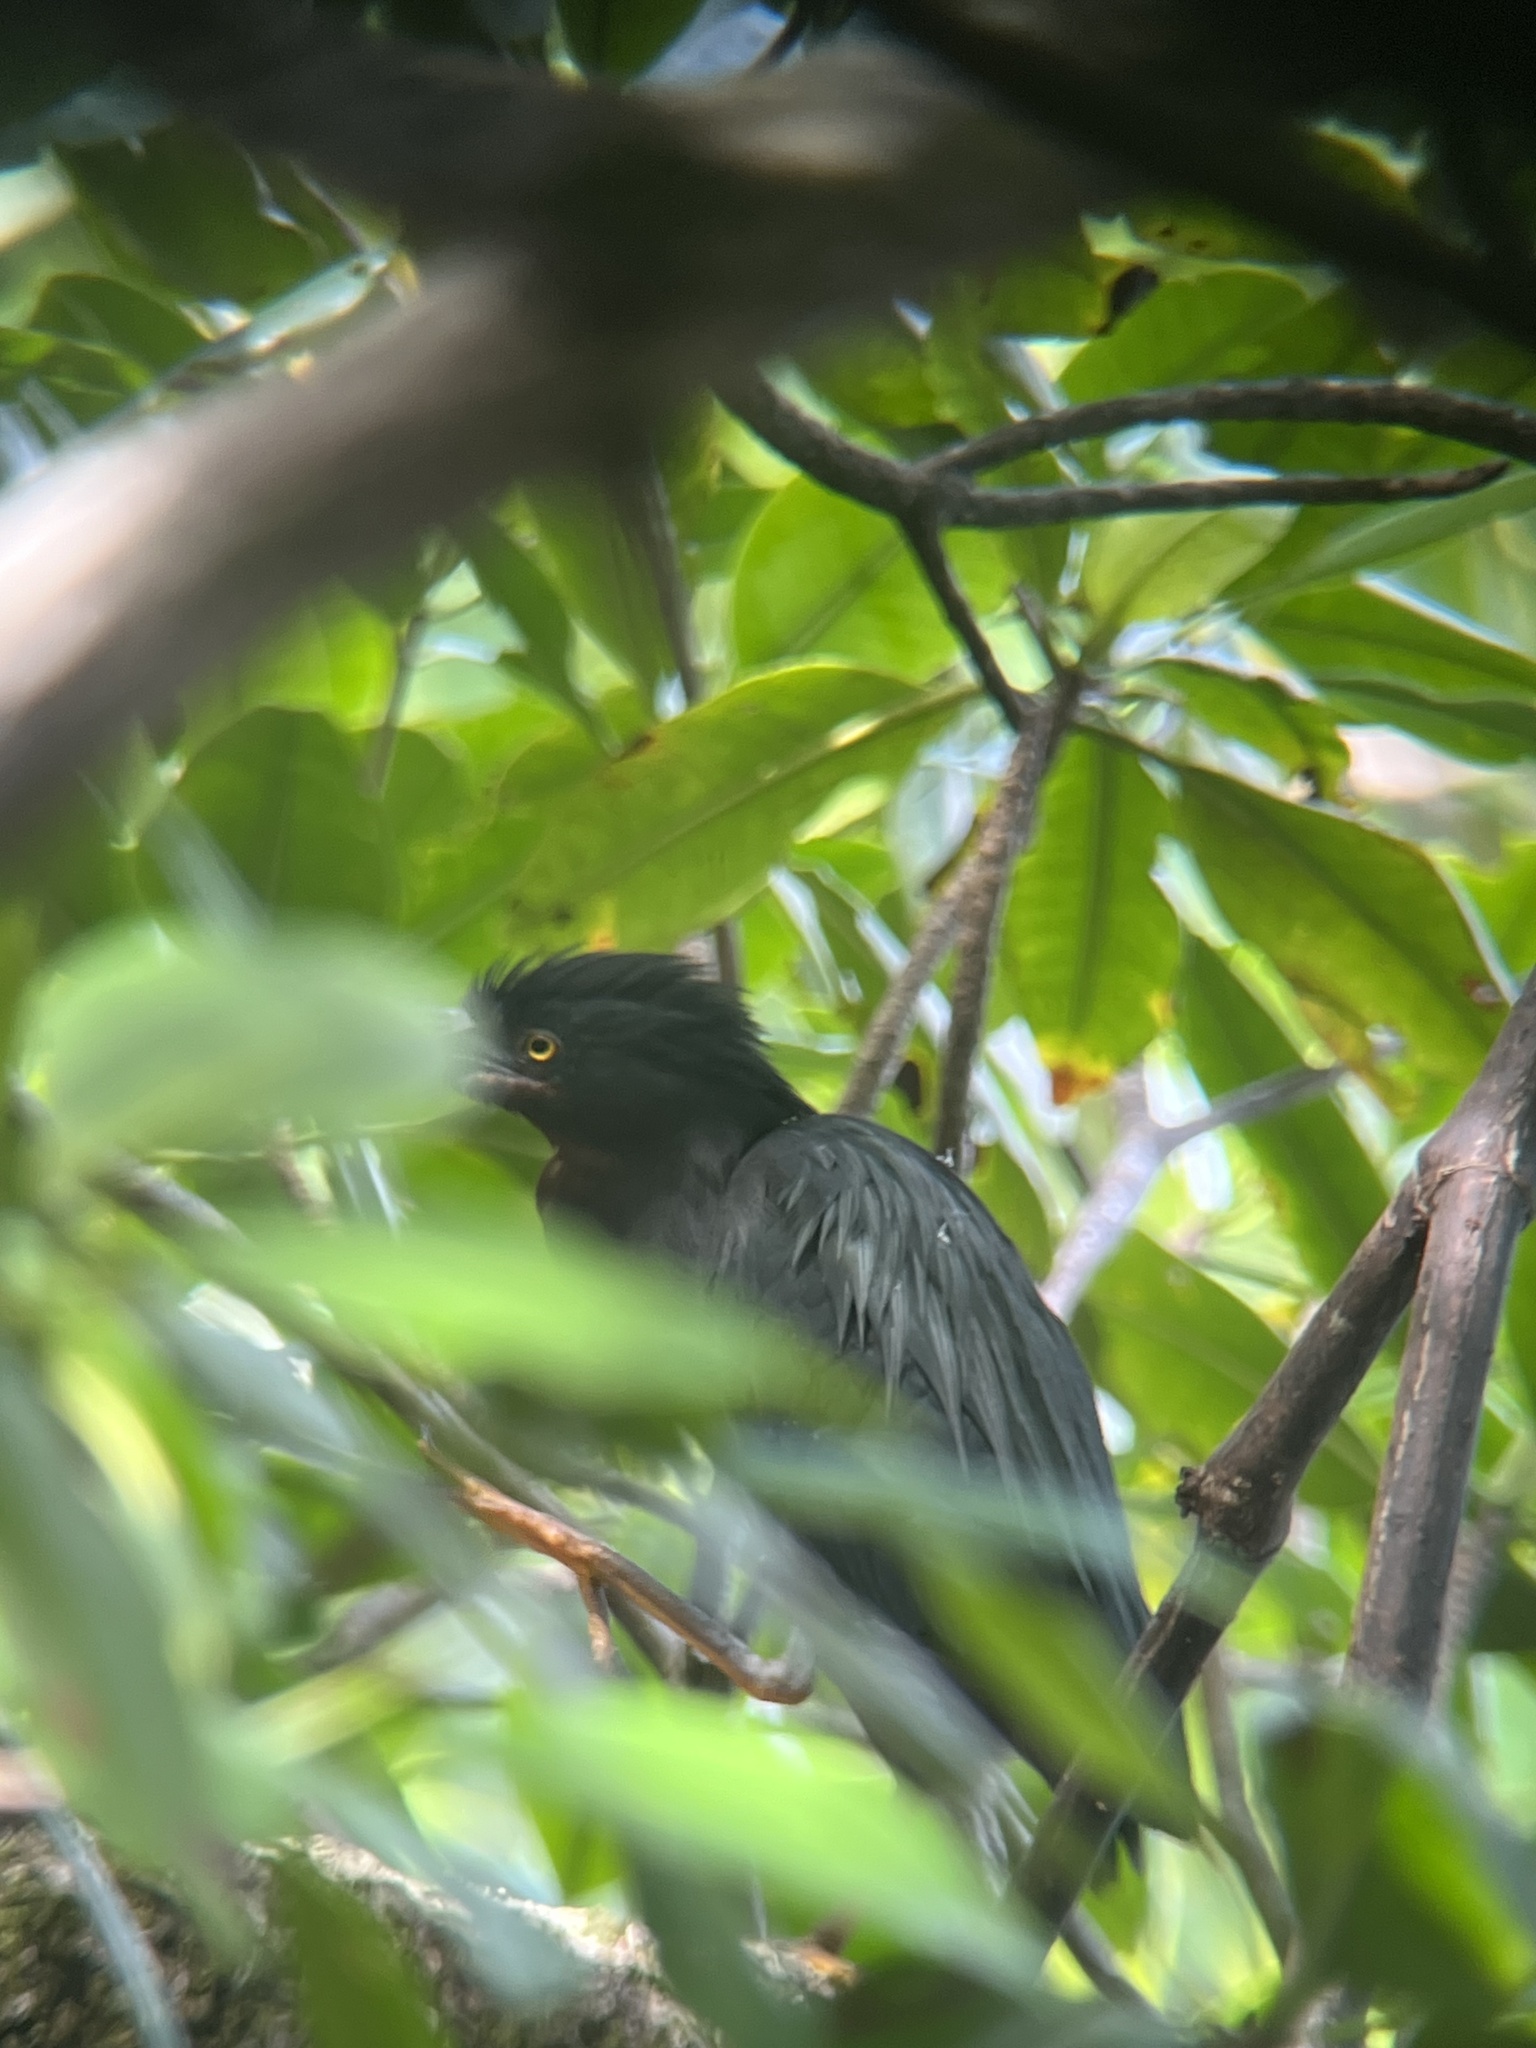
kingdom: Animalia
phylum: Chordata
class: Aves
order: Pelecaniformes
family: Ardeidae
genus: Butorides
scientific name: Butorides virescens
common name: Green heron
